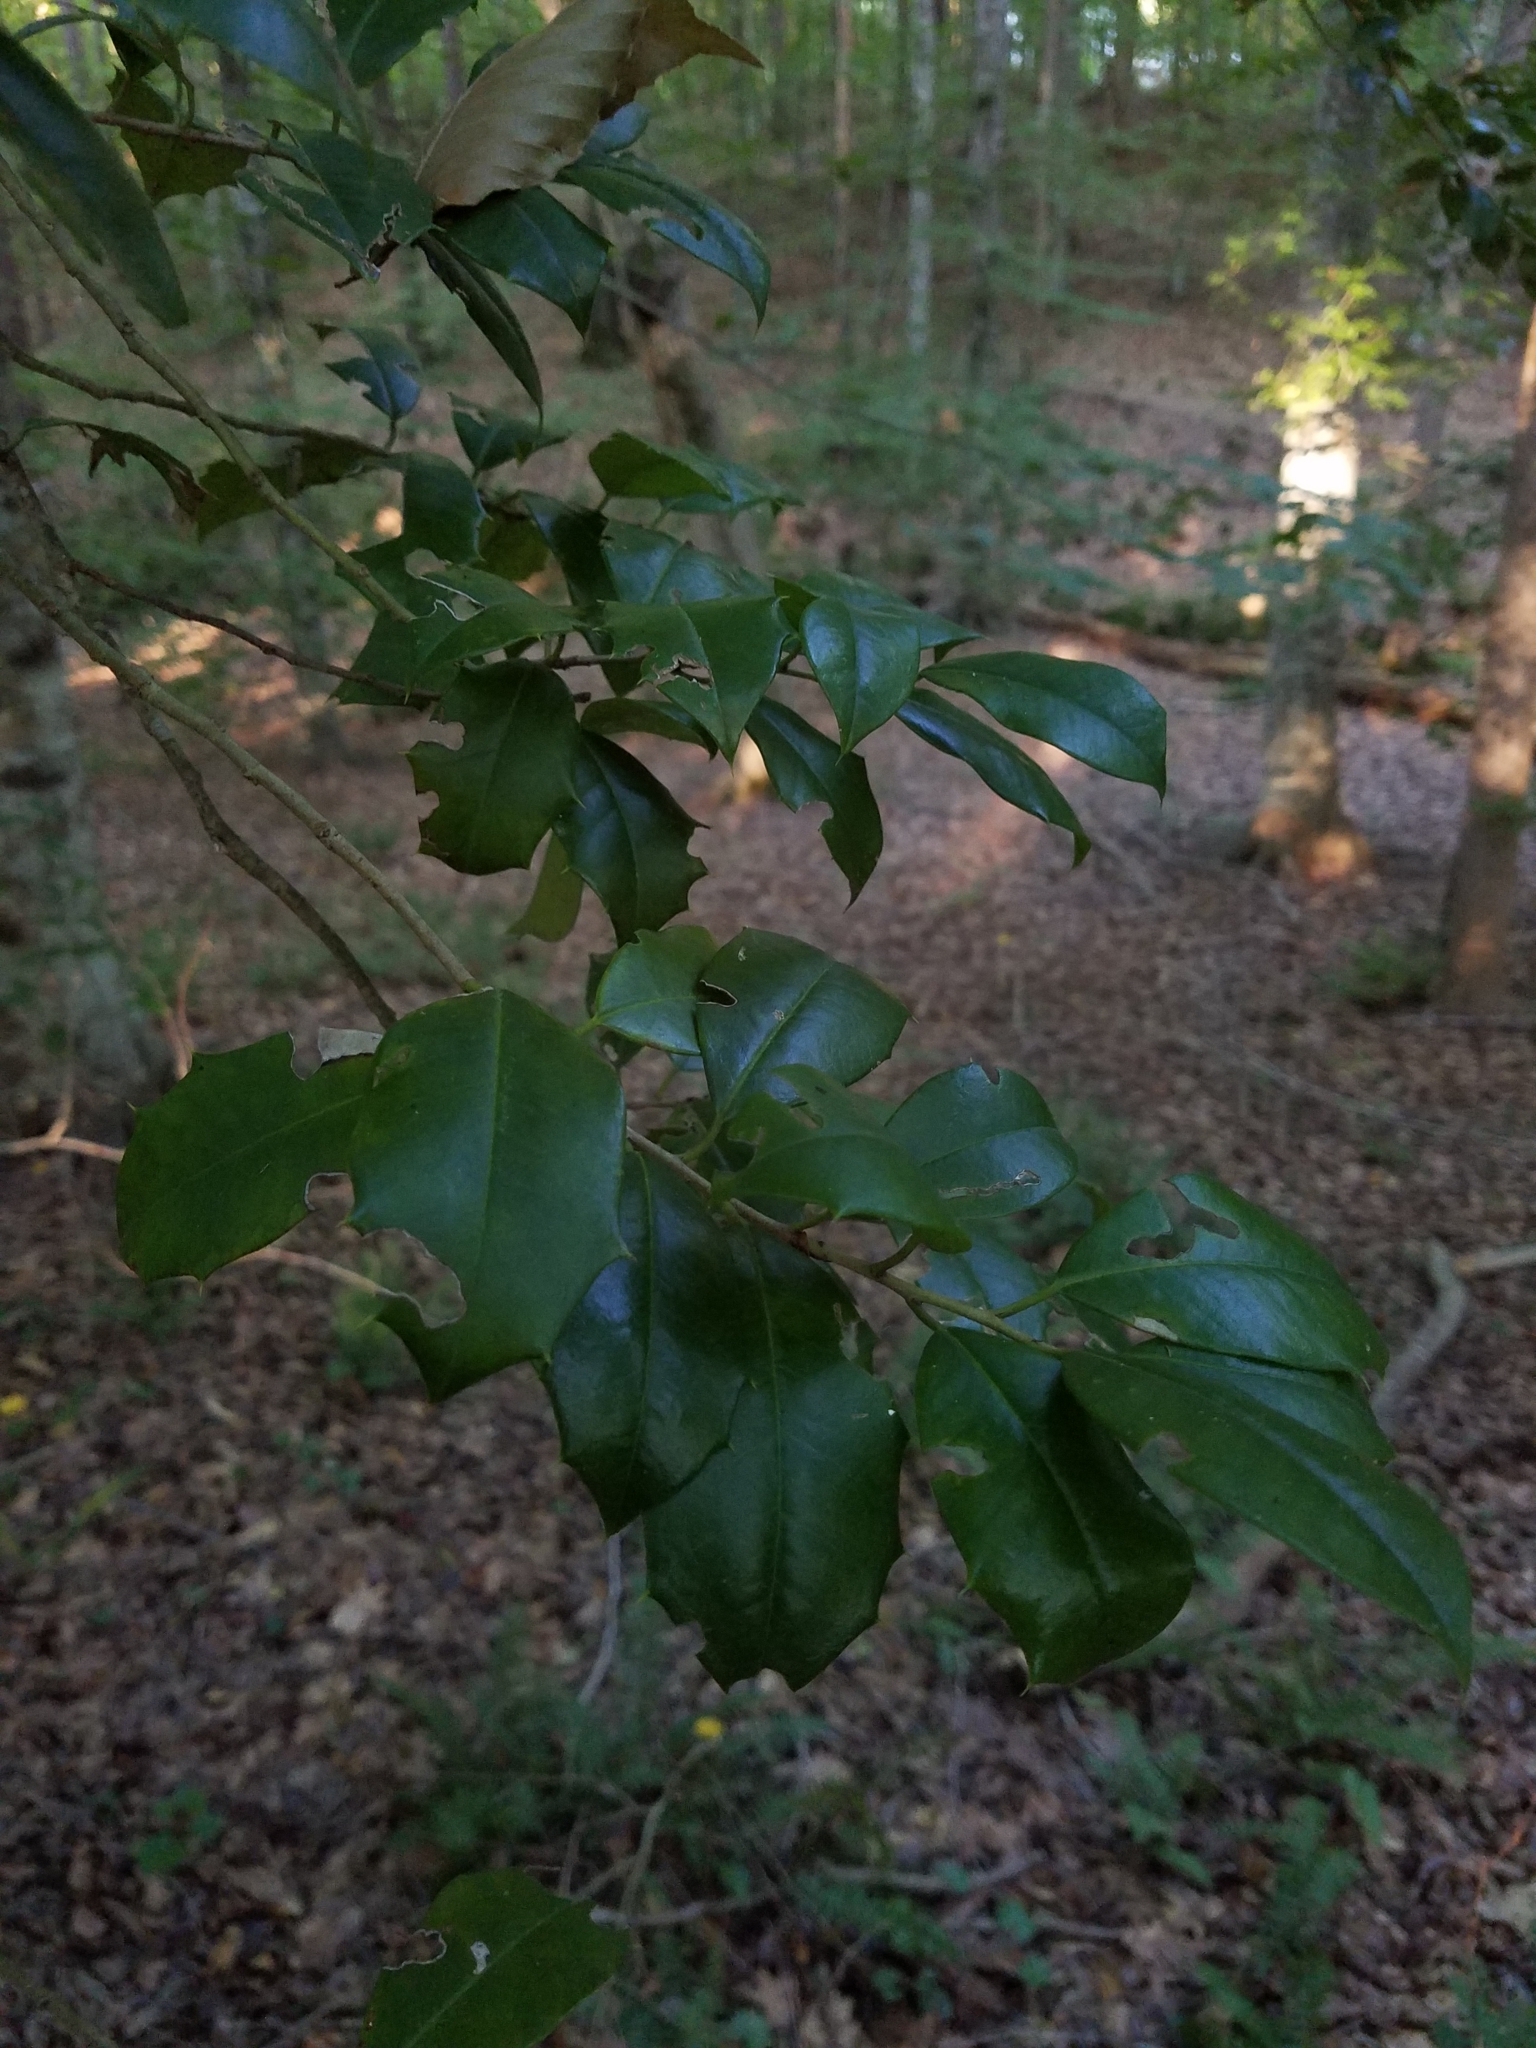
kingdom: Plantae
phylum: Tracheophyta
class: Magnoliopsida
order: Aquifoliales
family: Aquifoliaceae
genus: Ilex
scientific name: Ilex opaca
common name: American holly
